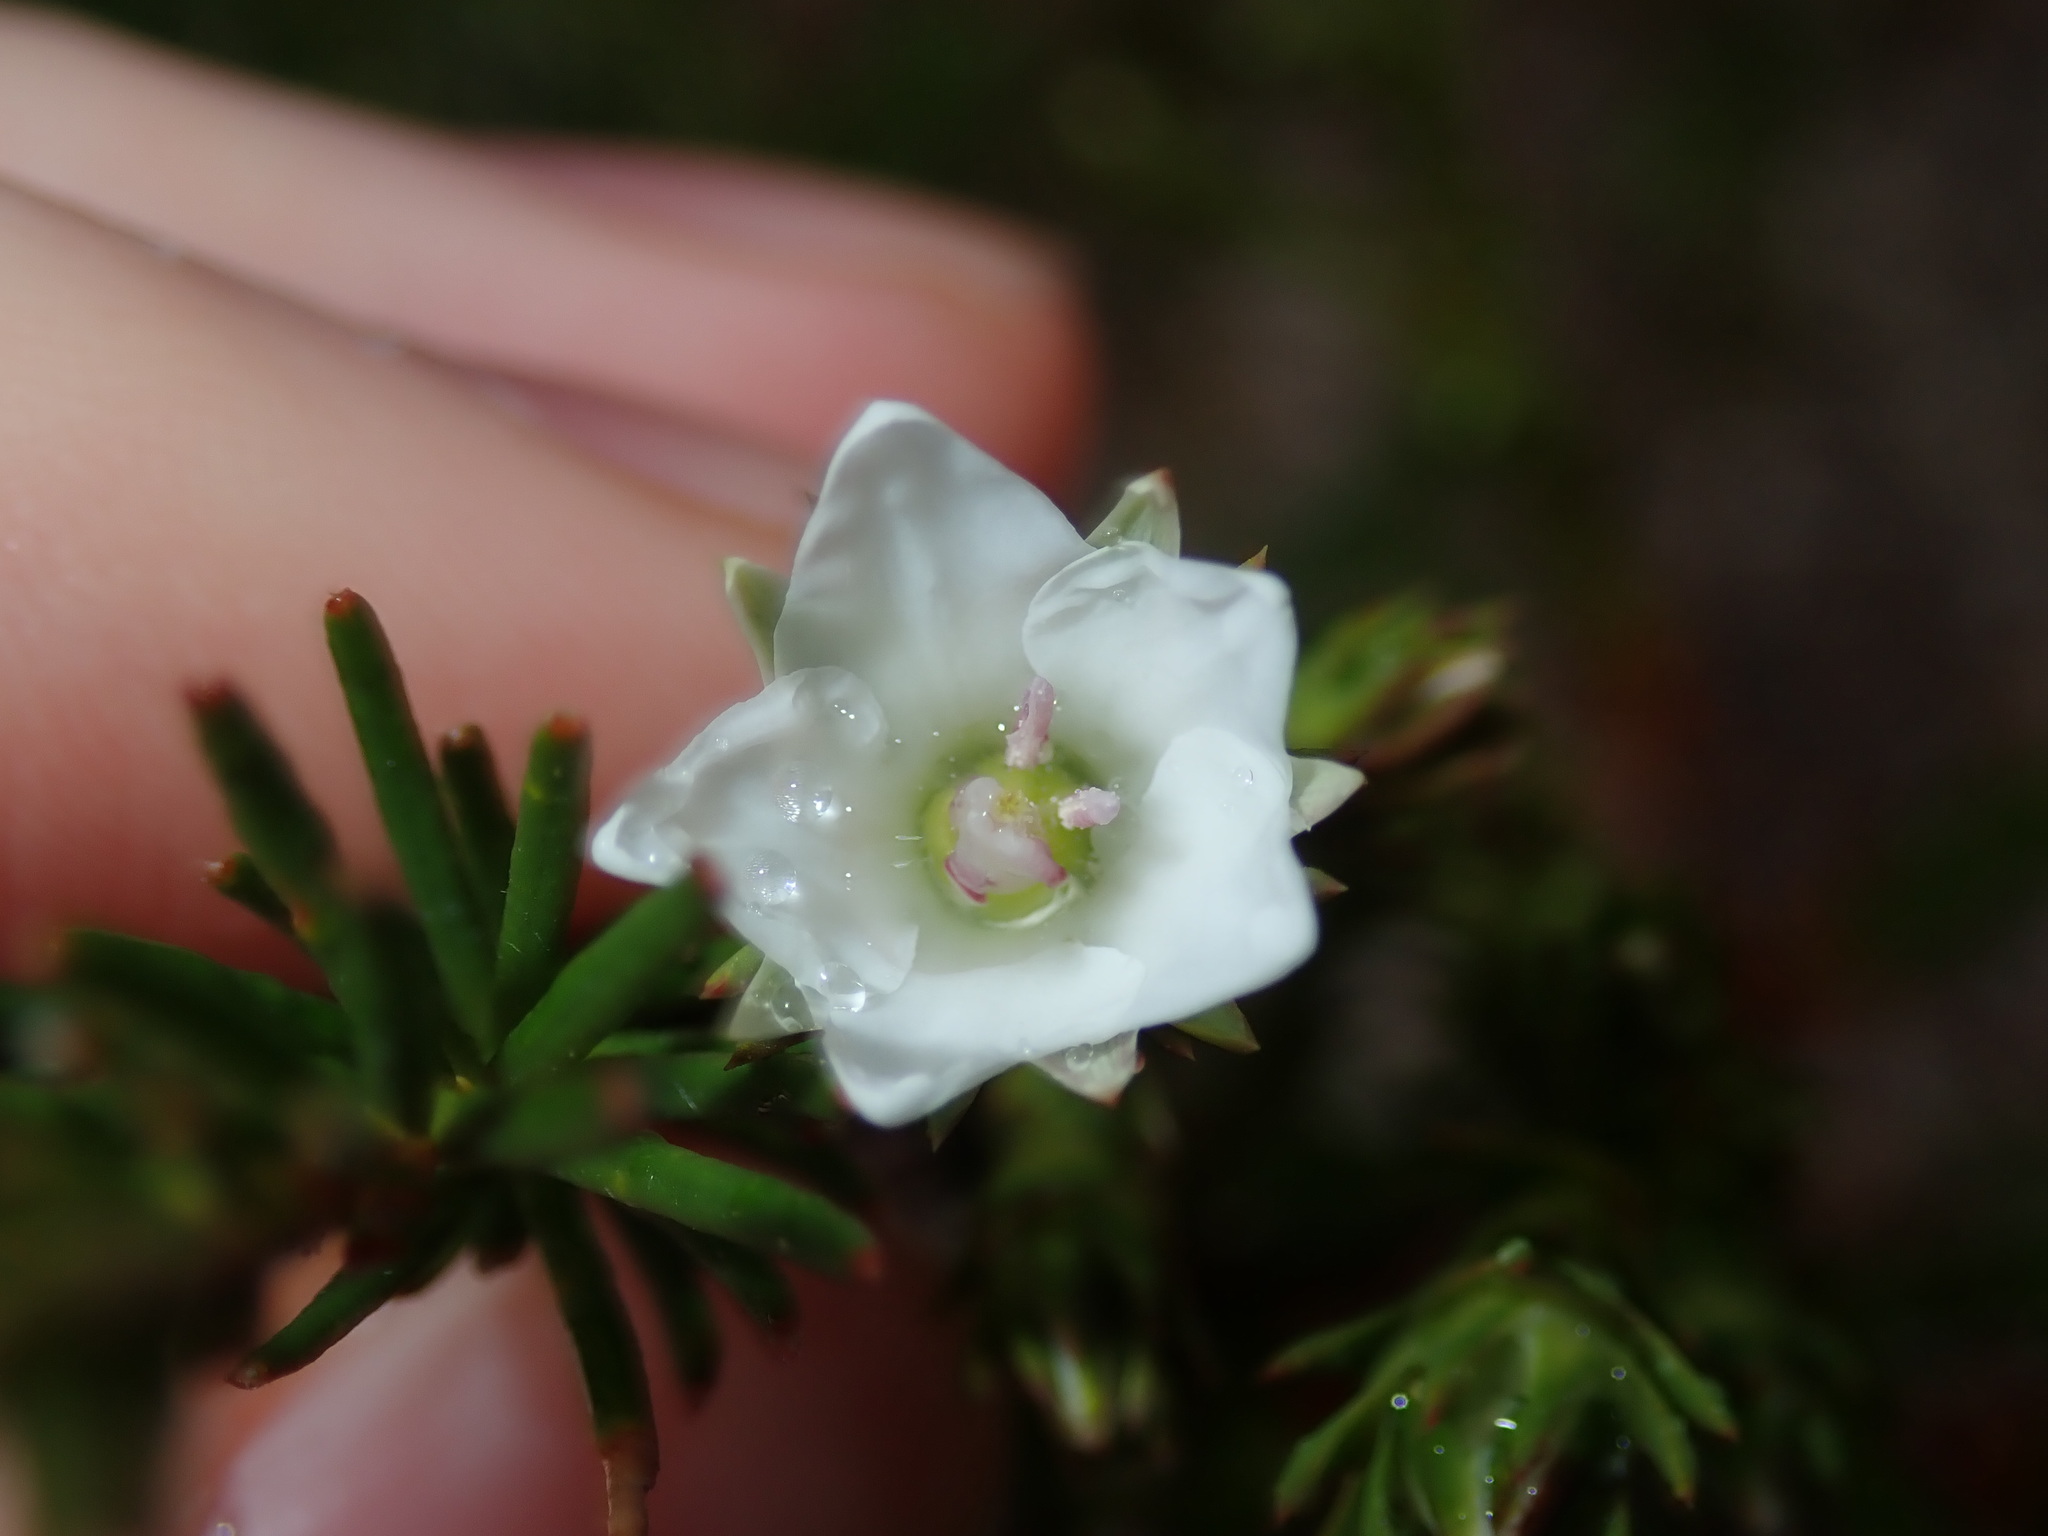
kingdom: Plantae
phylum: Tracheophyta
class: Magnoliopsida
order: Ericales
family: Ericaceae
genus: Sprengelia
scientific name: Sprengelia sprengelioides
